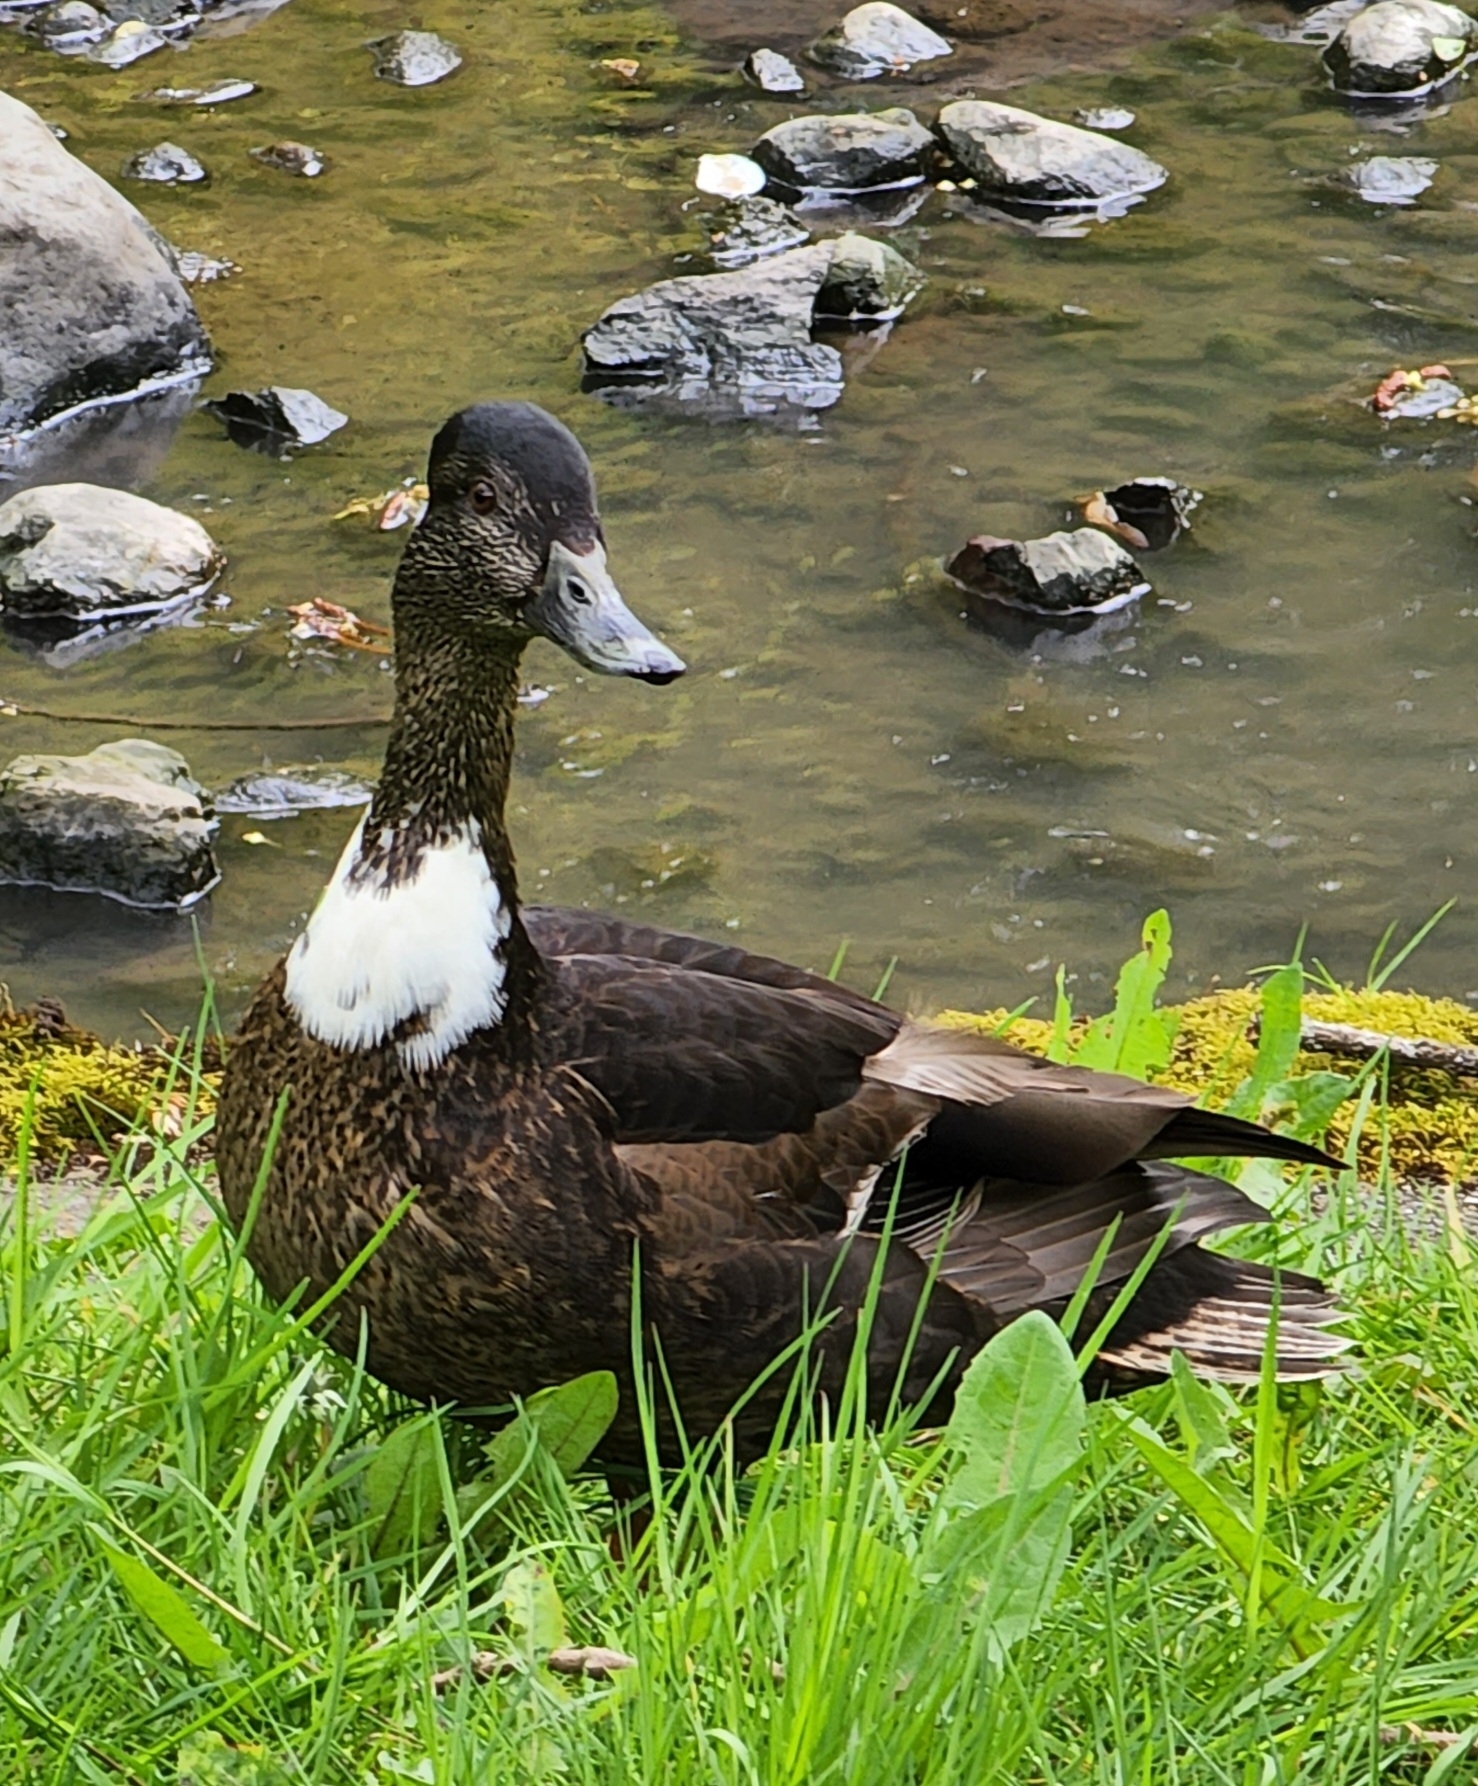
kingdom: Animalia
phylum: Chordata
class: Aves
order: Anseriformes
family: Anatidae
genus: Anas
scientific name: Anas platyrhynchos
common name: Mallard
